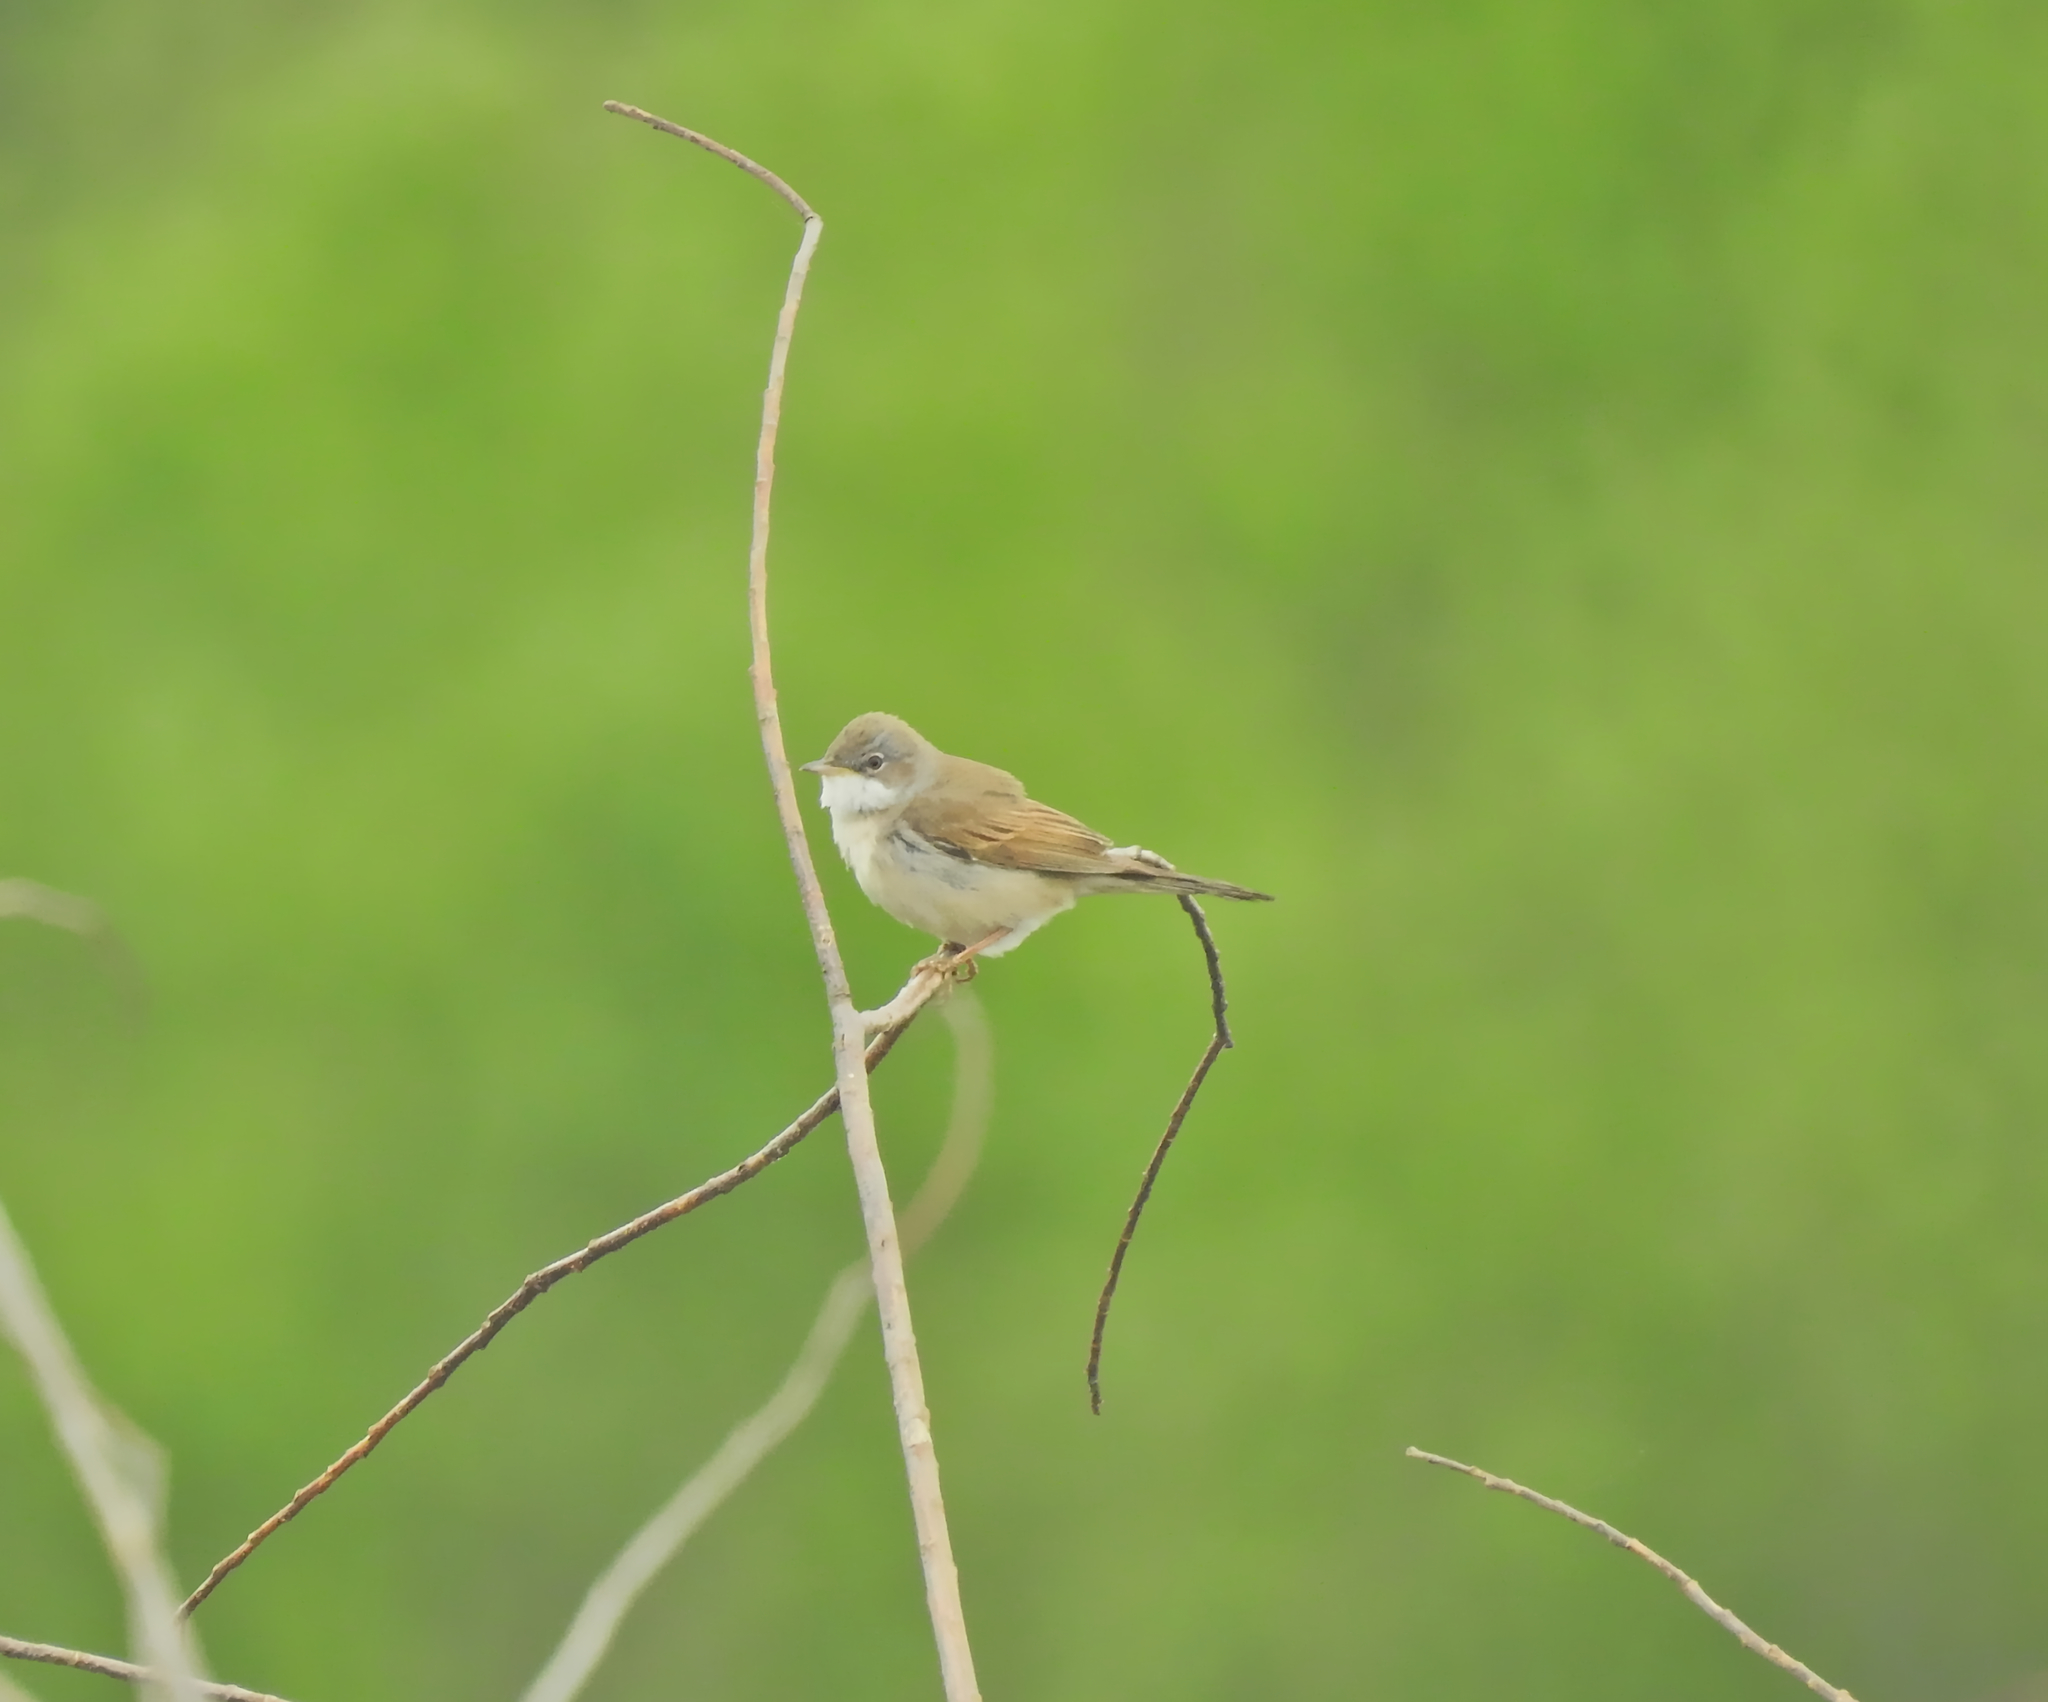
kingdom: Animalia
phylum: Chordata
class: Aves
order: Passeriformes
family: Sylviidae
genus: Sylvia
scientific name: Sylvia communis
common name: Common whitethroat
